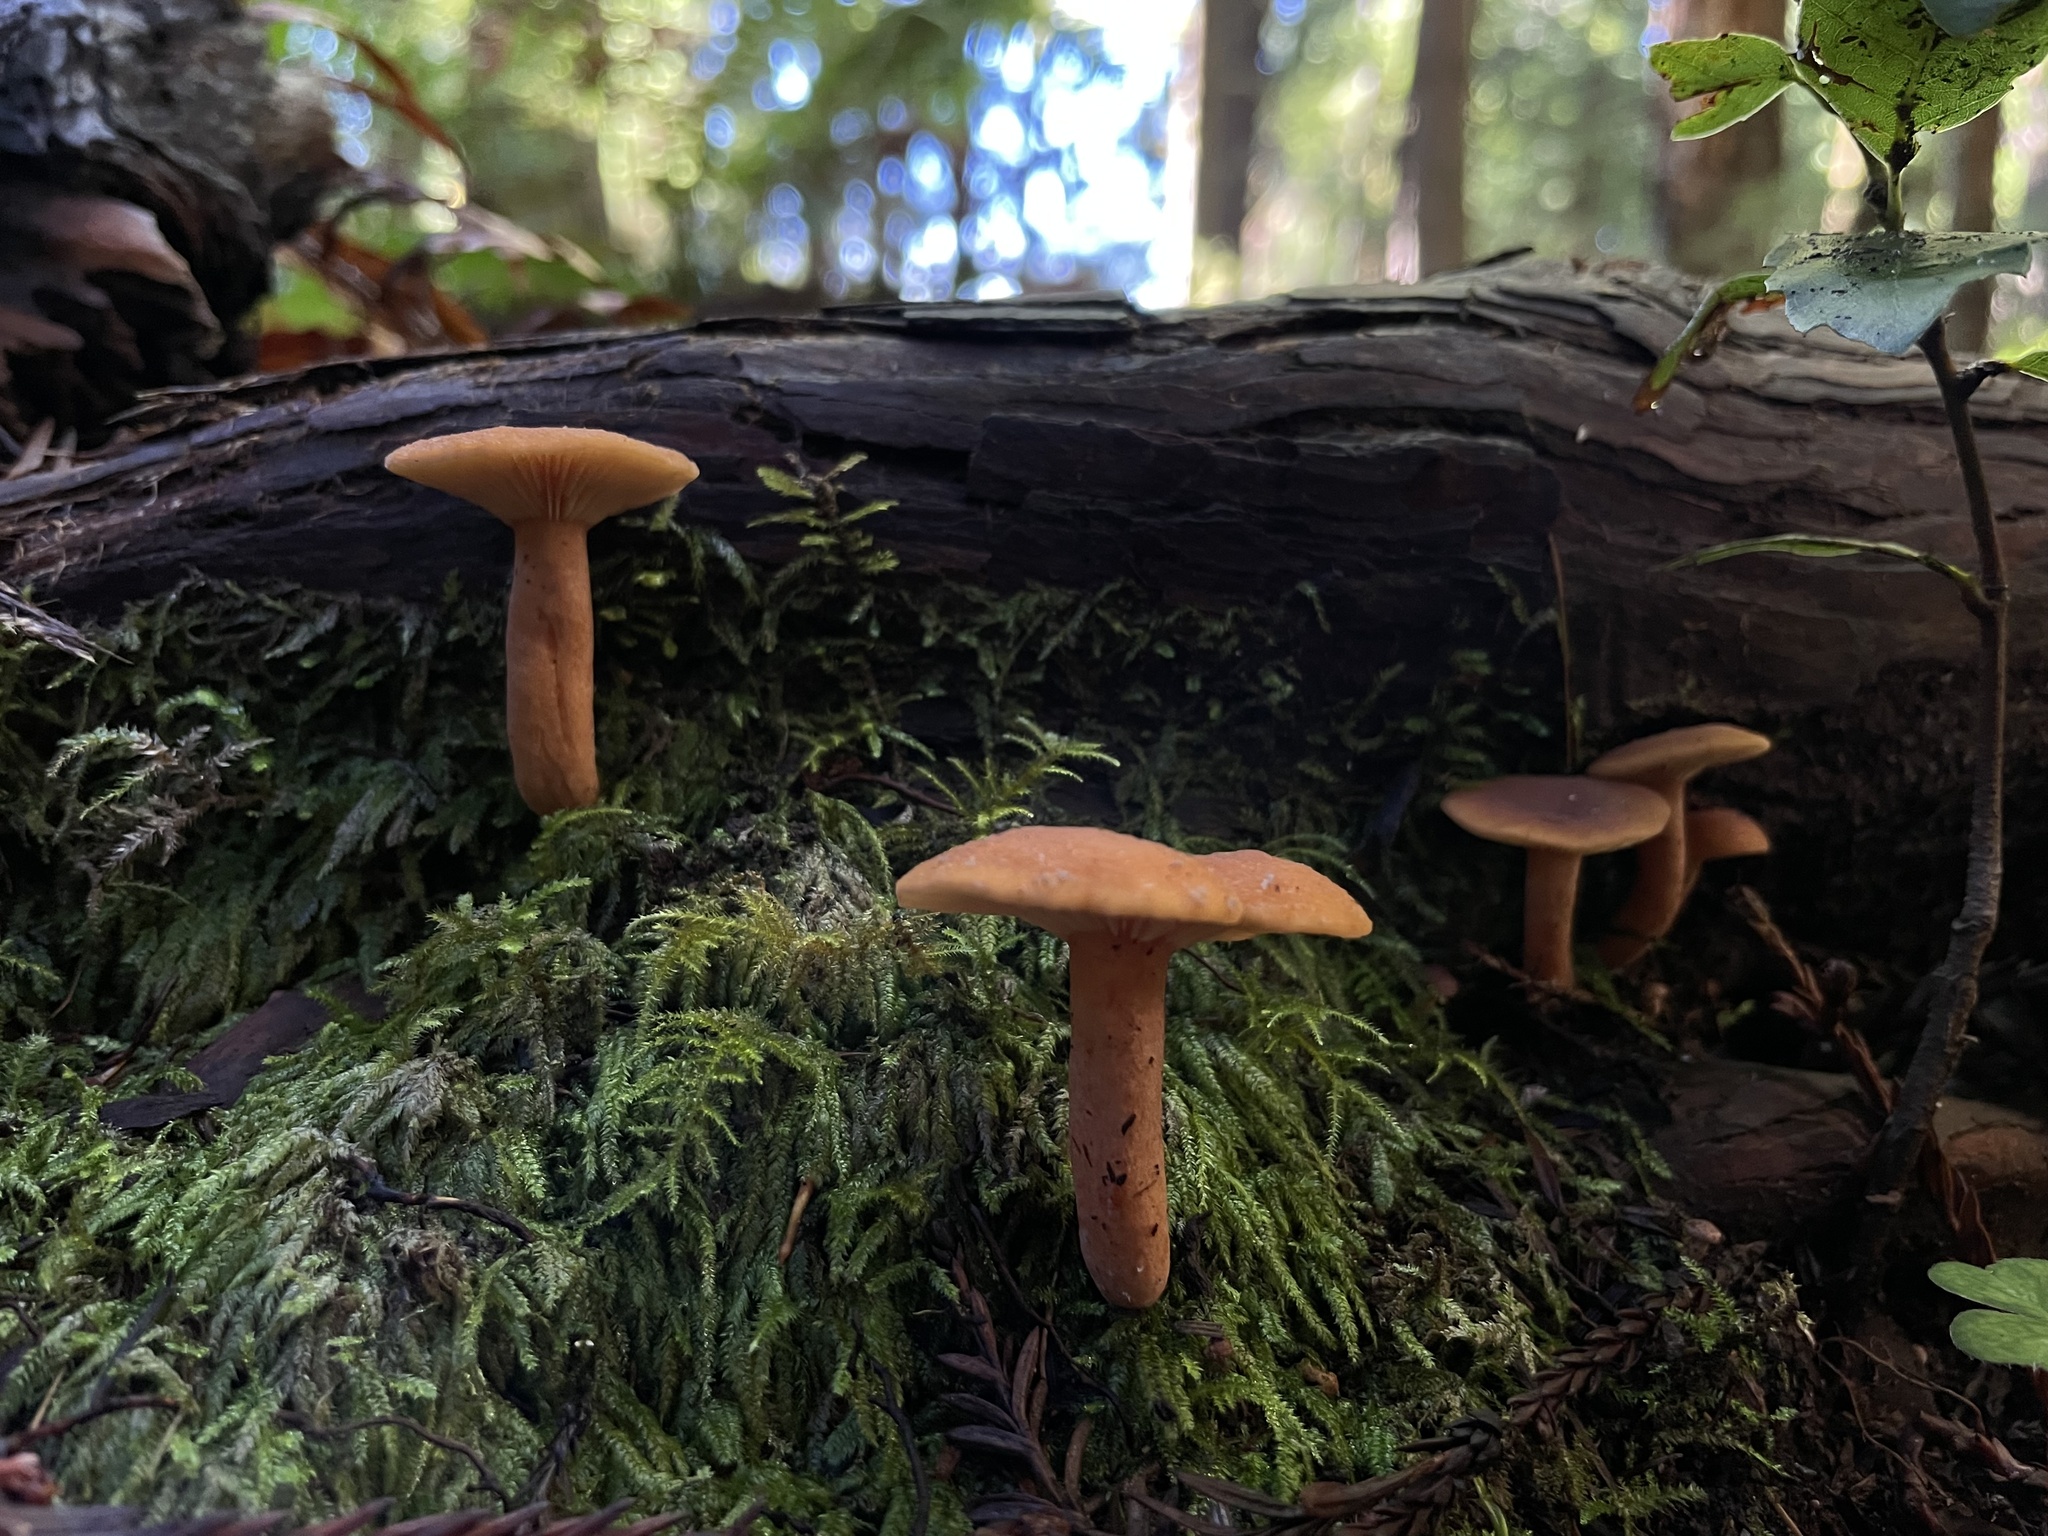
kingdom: Fungi
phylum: Basidiomycota
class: Agaricomycetes
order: Russulales
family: Russulaceae
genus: Lactarius
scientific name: Lactarius rubidus
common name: Candy cap
